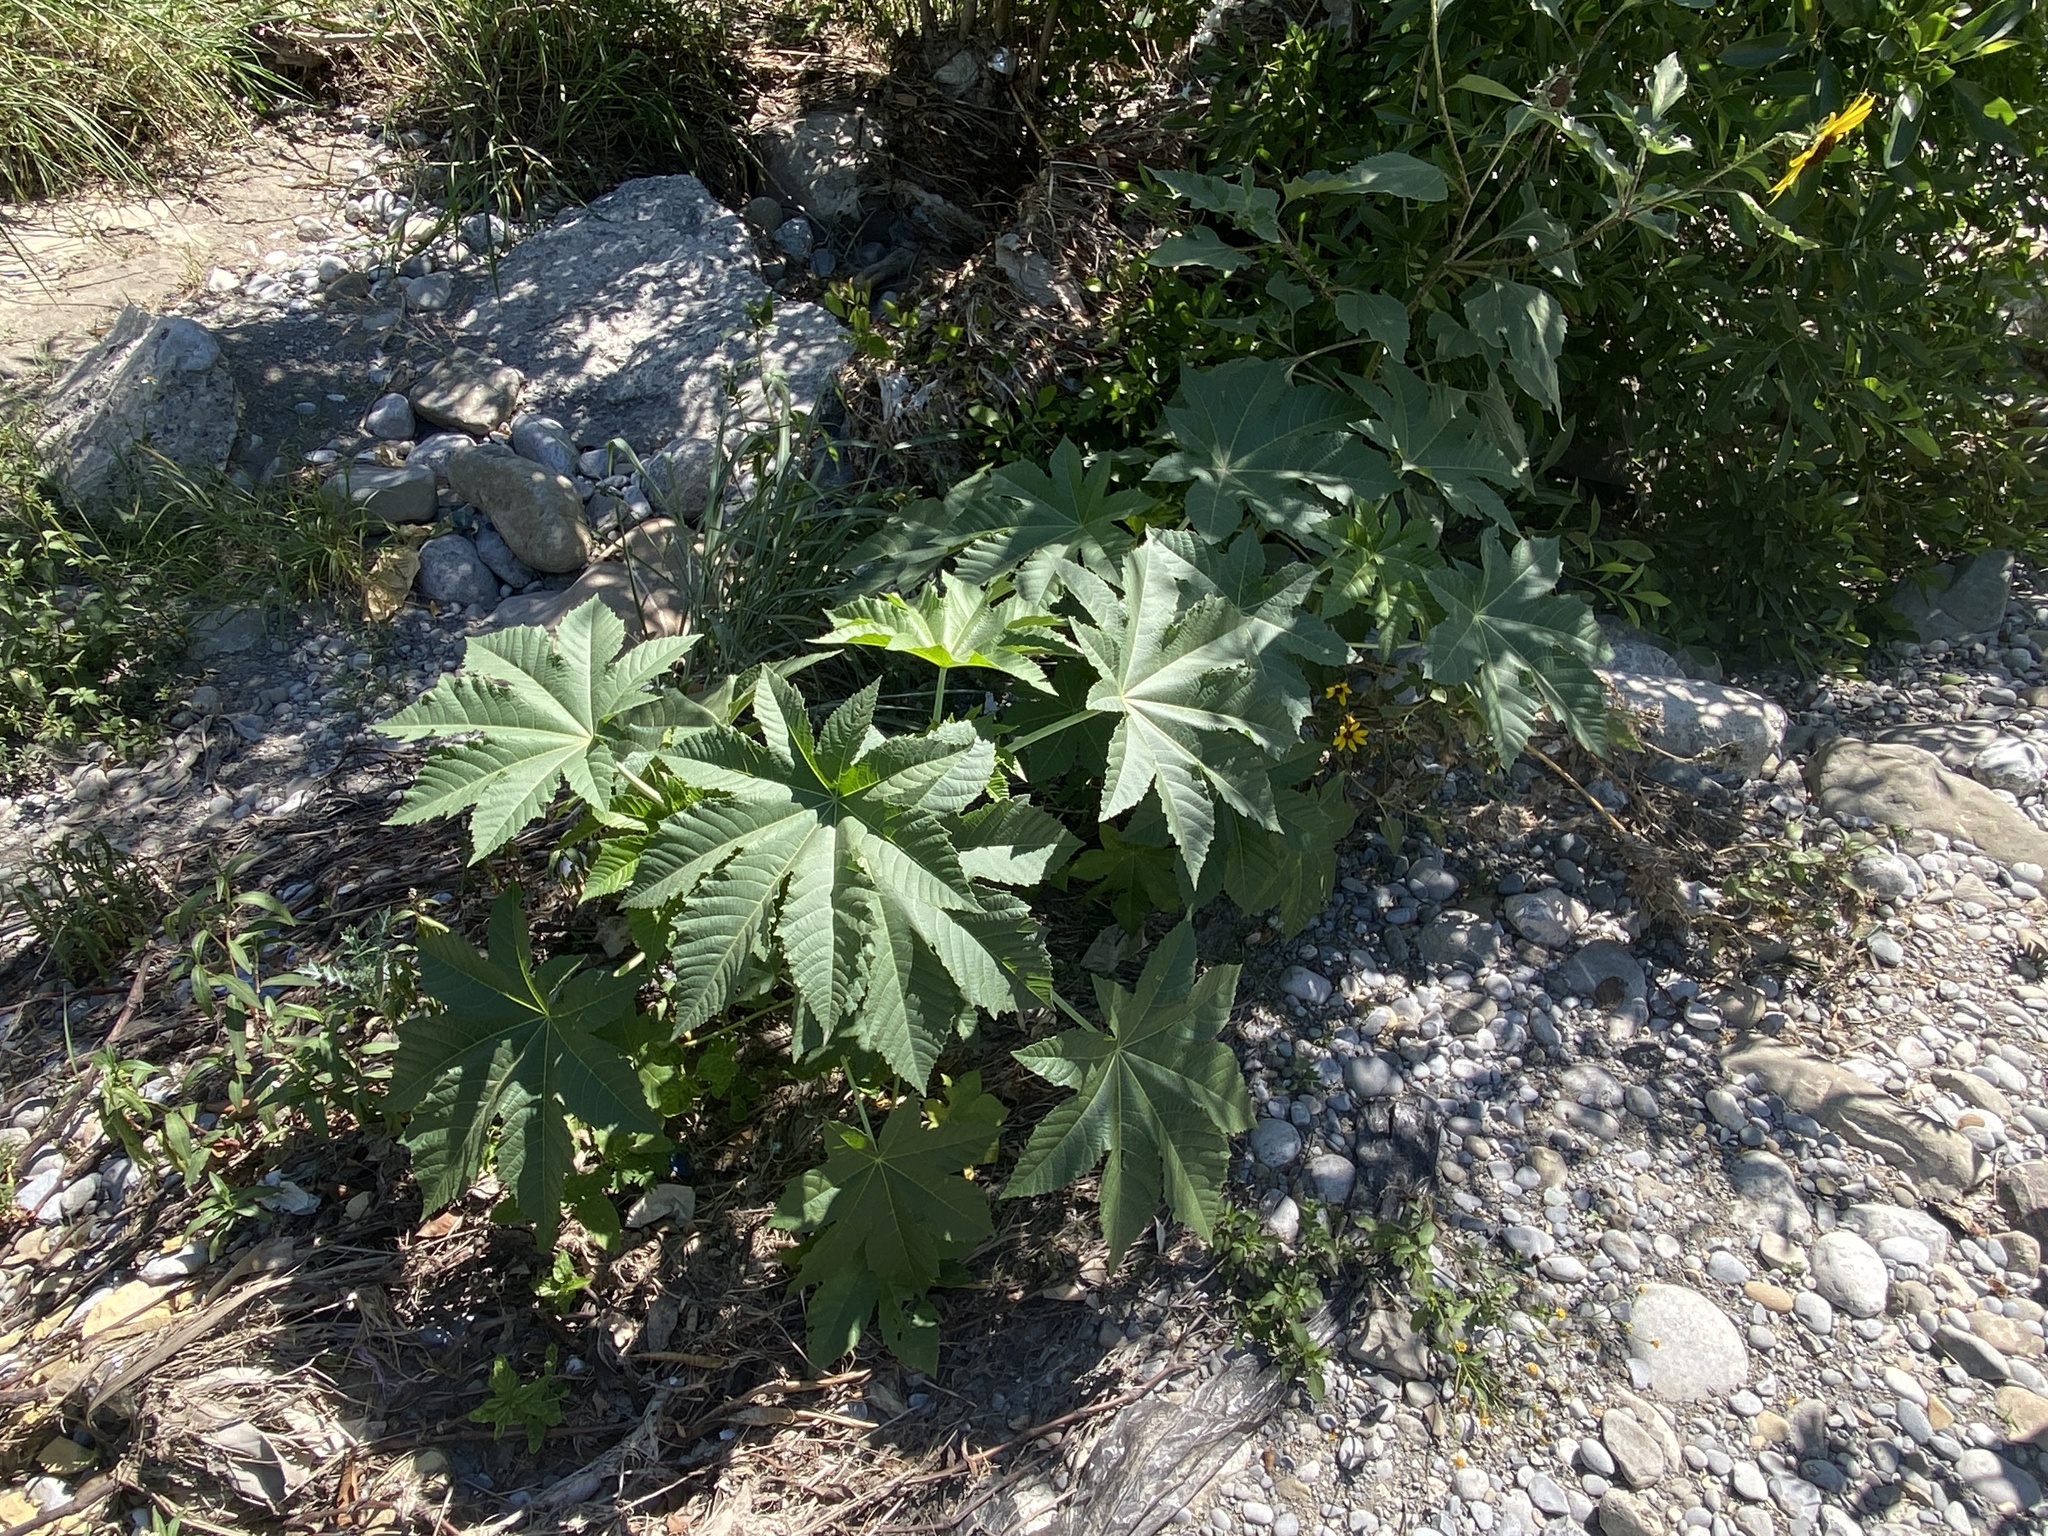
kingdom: Plantae
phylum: Tracheophyta
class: Magnoliopsida
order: Malpighiales
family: Euphorbiaceae
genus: Ricinus
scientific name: Ricinus communis
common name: Castor-oil-plant
